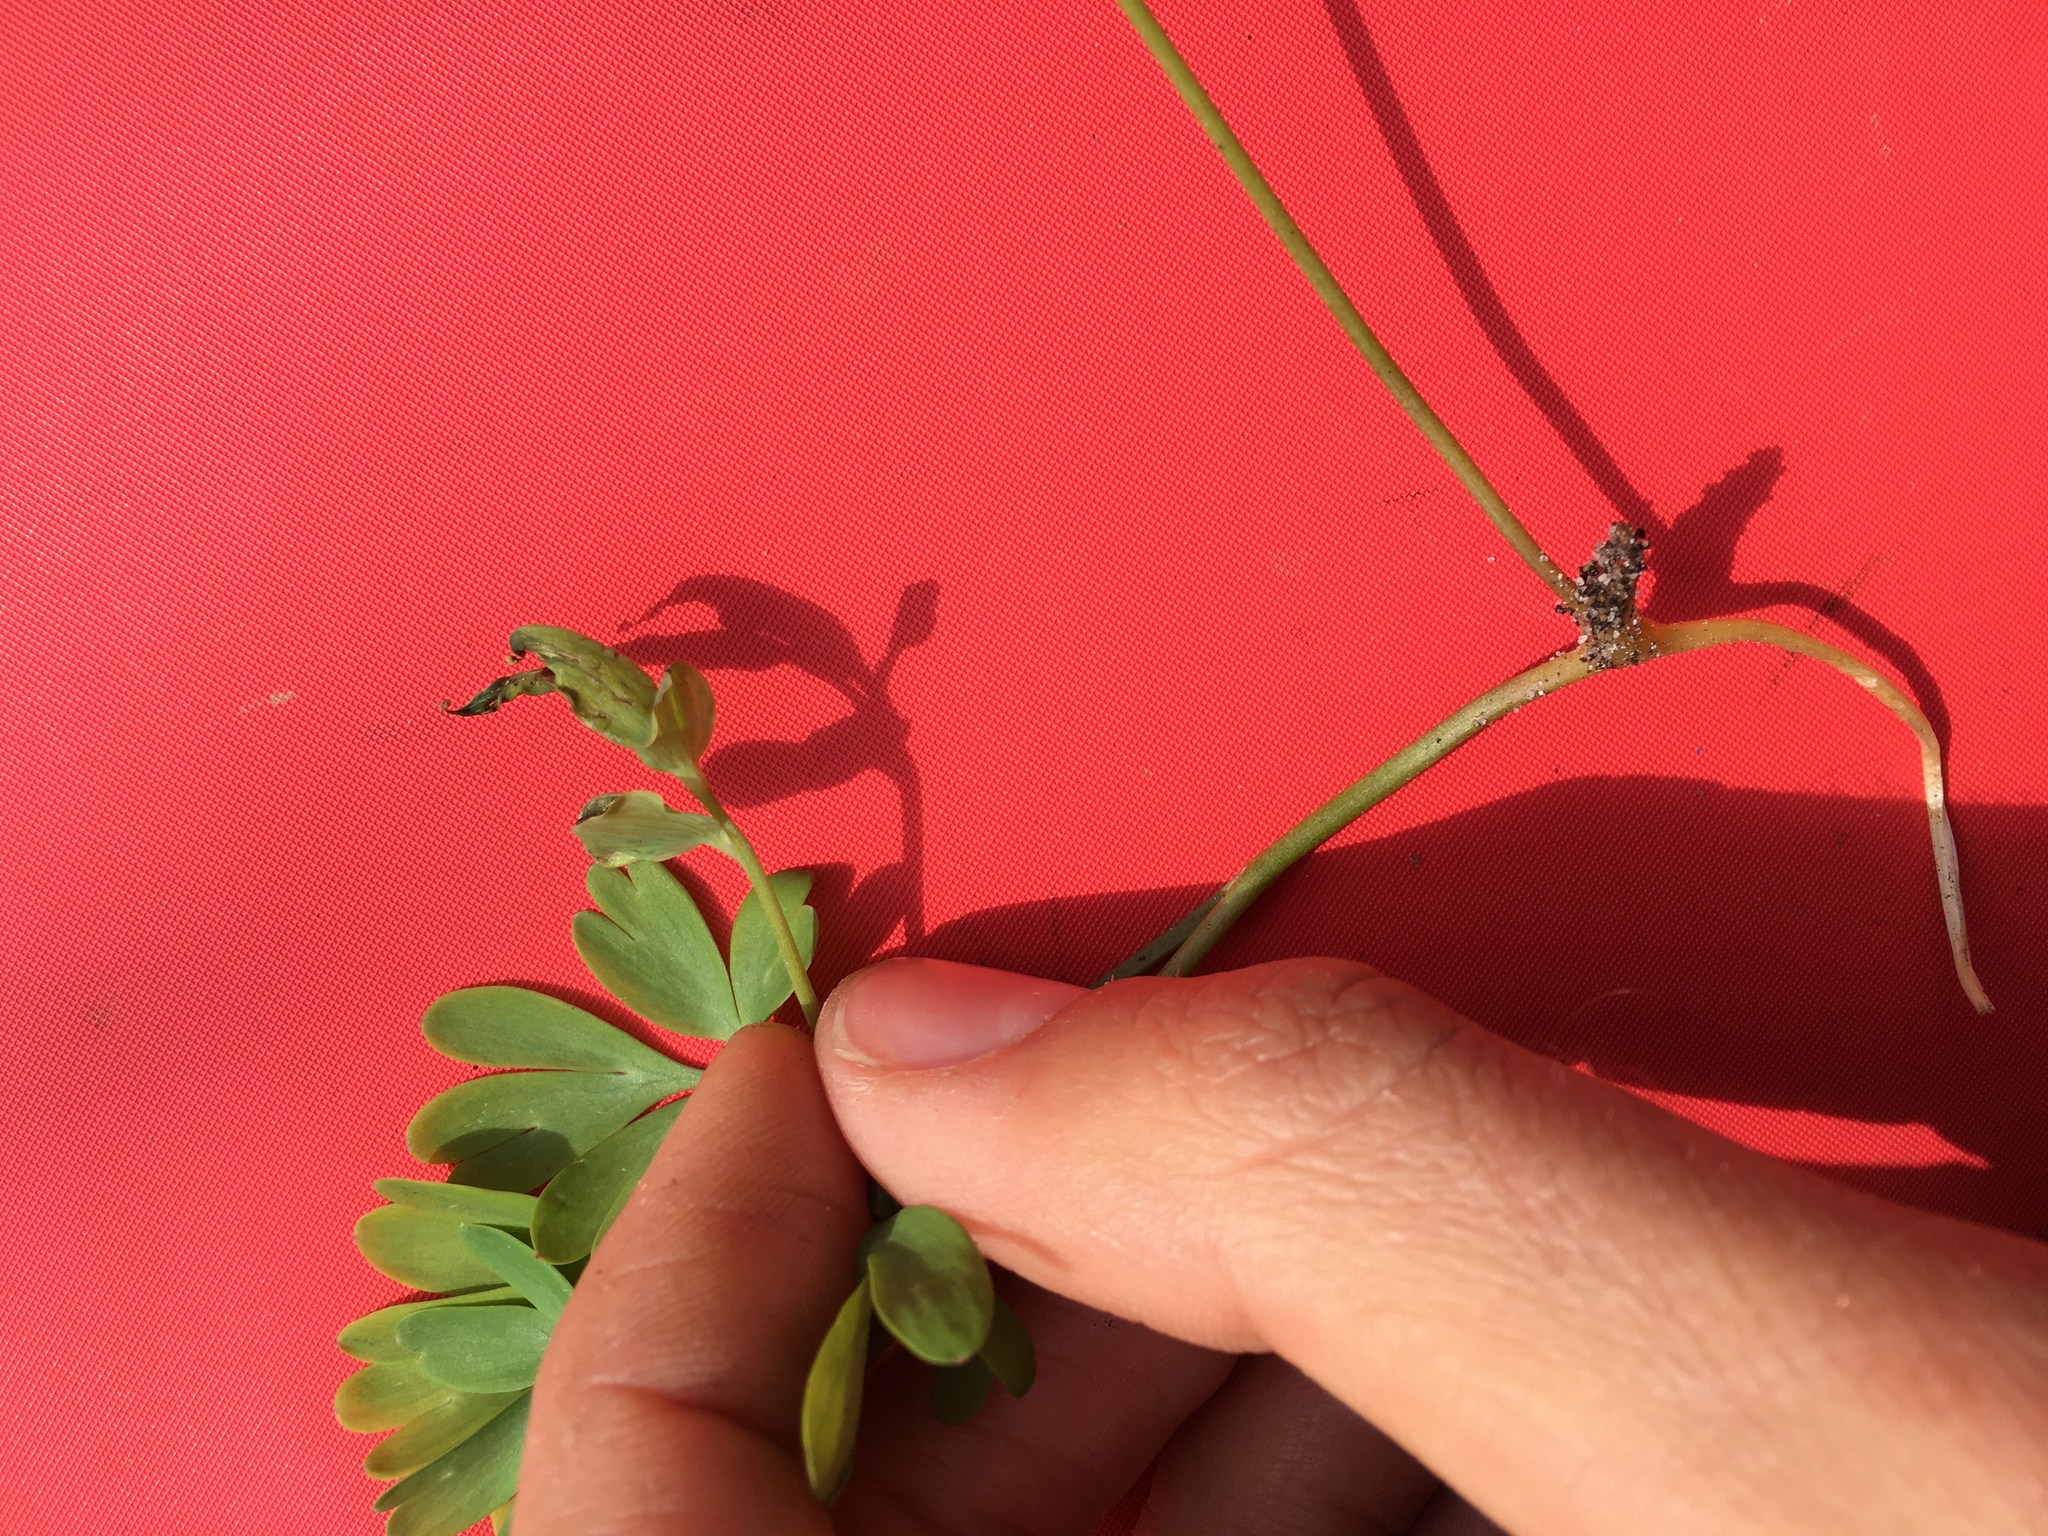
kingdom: Plantae
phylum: Tracheophyta
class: Magnoliopsida
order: Ranunculales
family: Papaveraceae
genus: Corydalis
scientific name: Corydalis intermedia
